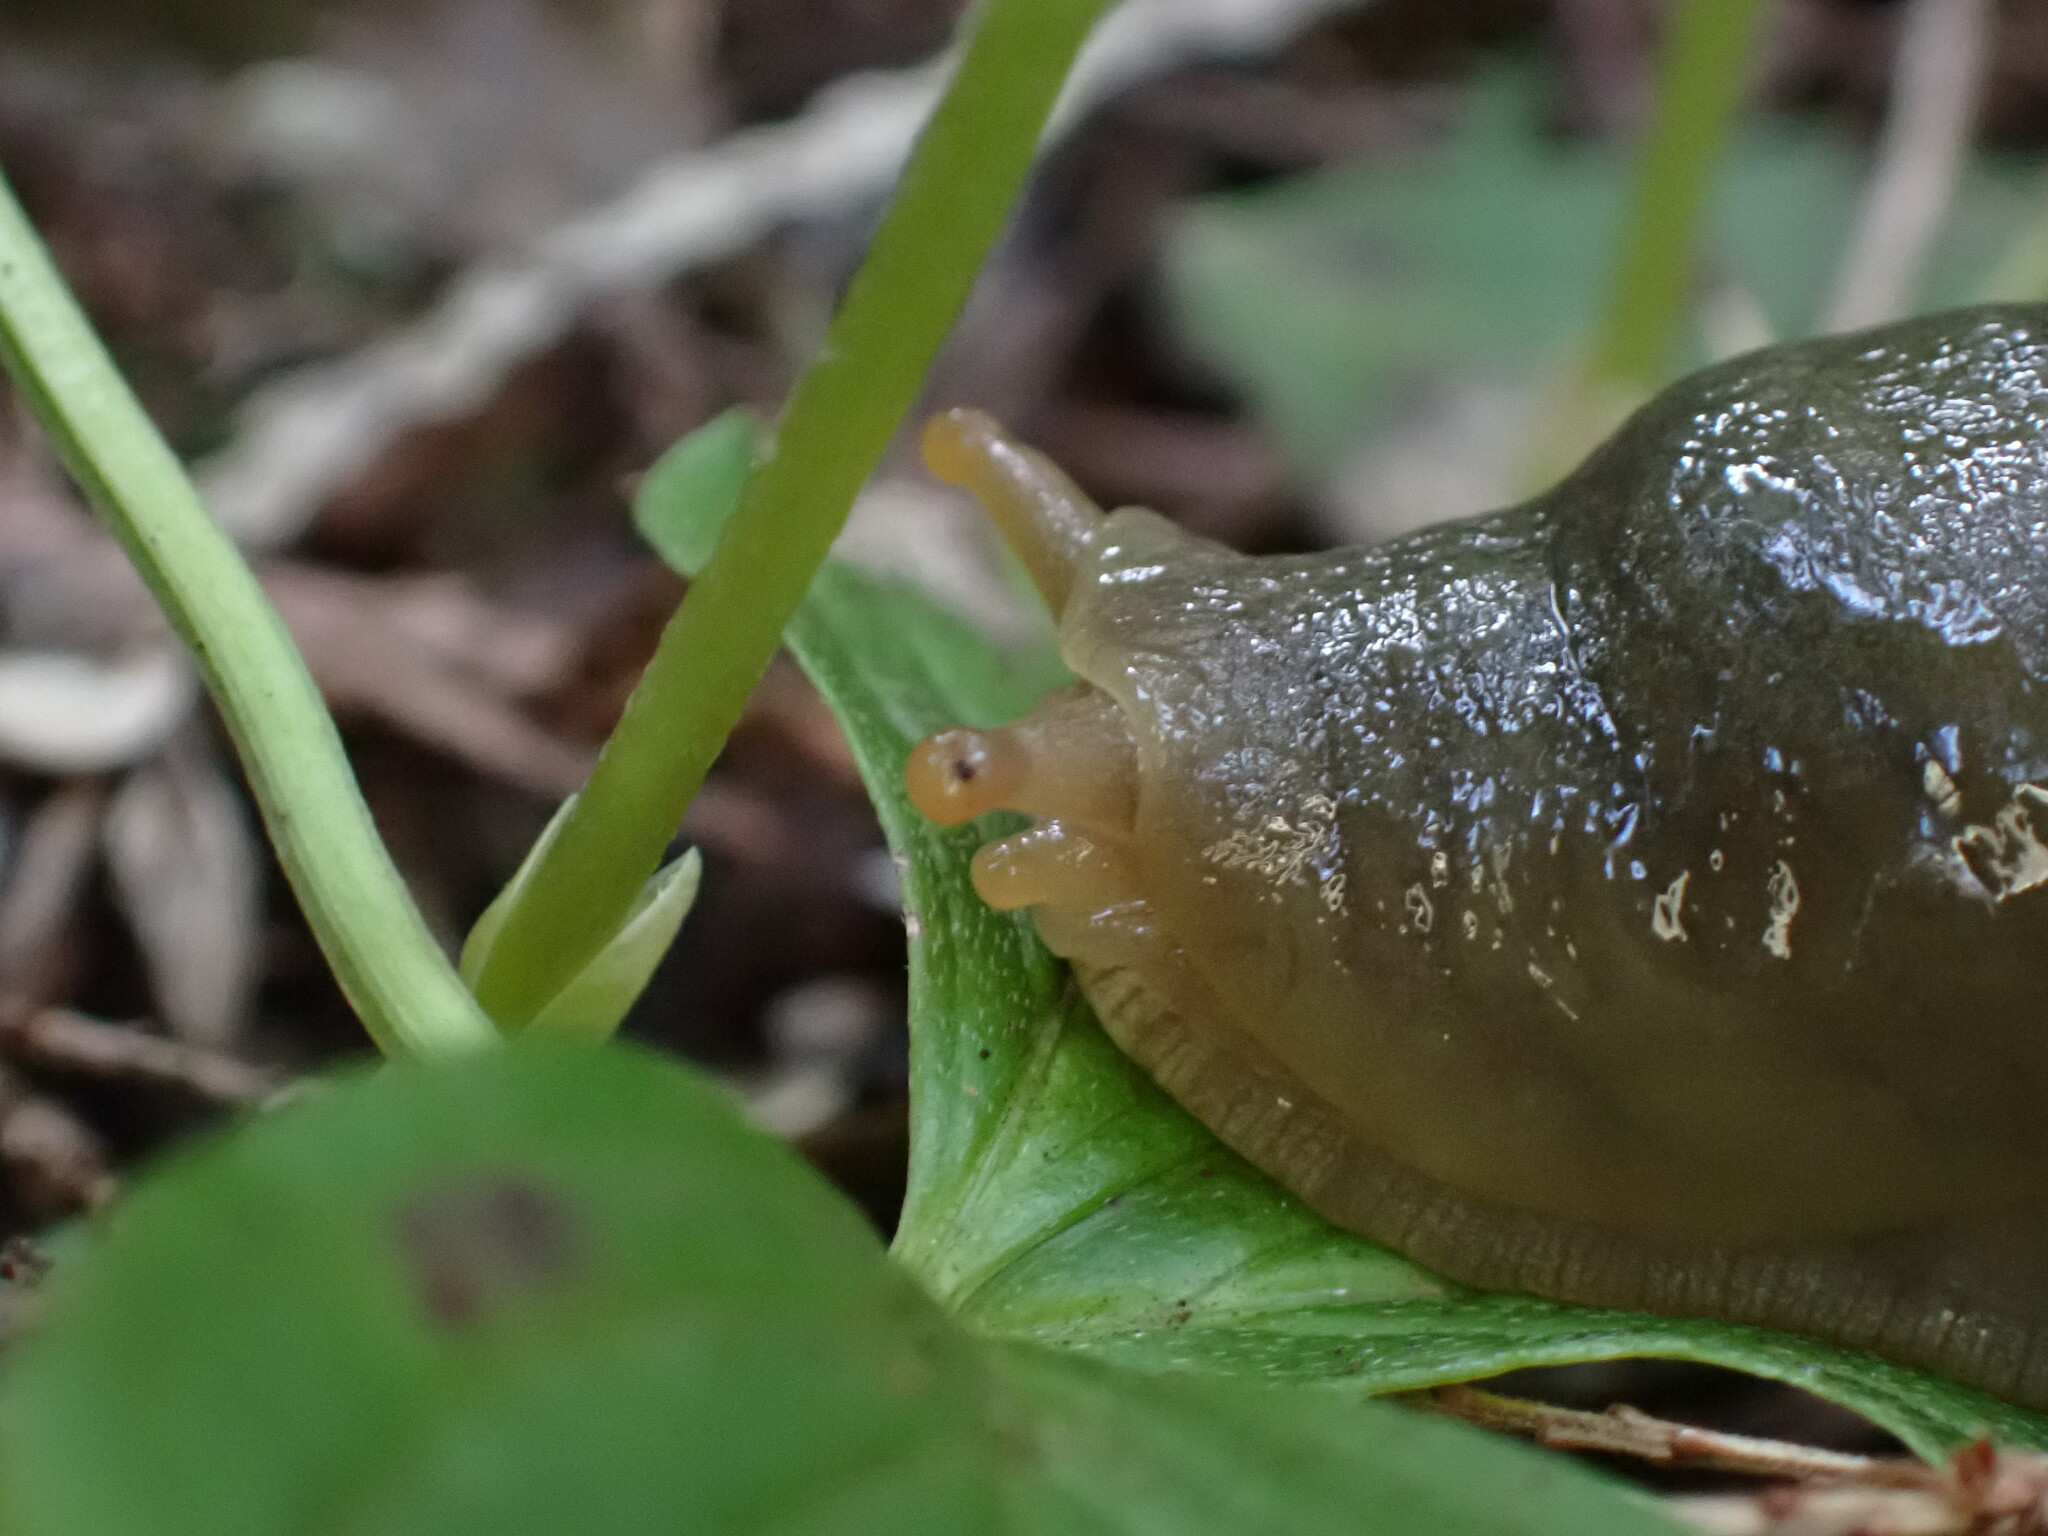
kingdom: Animalia
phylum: Mollusca
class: Gastropoda
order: Stylommatophora
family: Ariolimacidae
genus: Ariolimax
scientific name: Ariolimax columbianus
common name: Pacific banana slug
